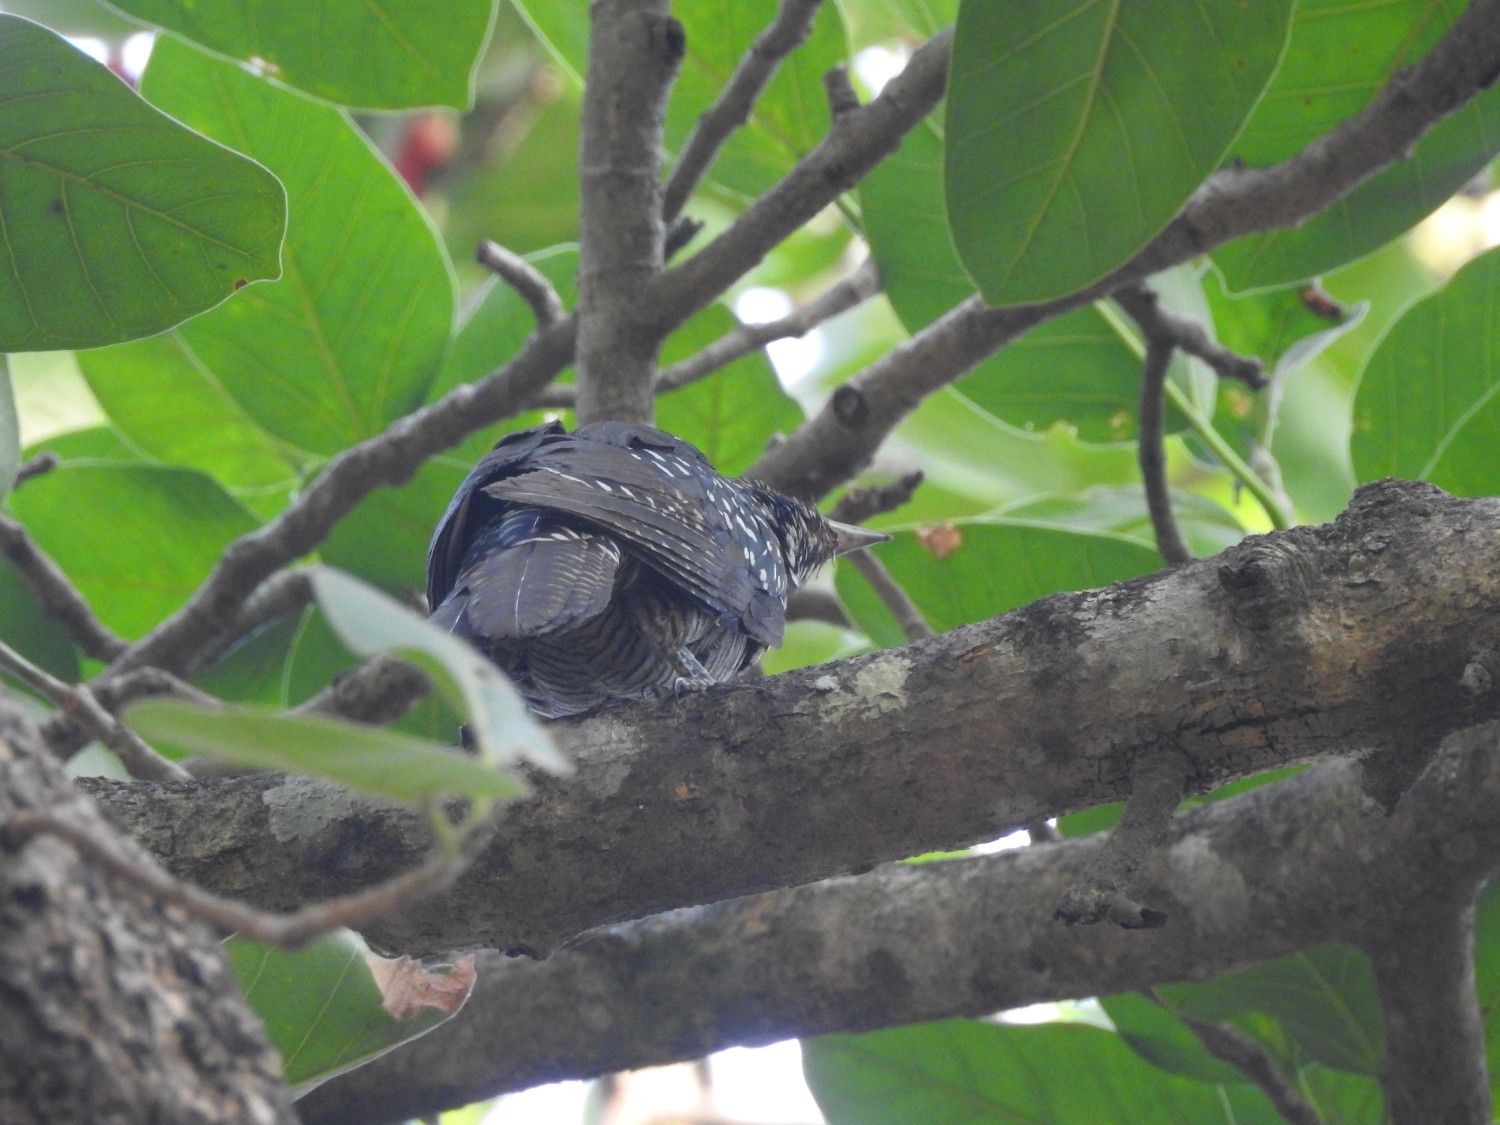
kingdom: Animalia
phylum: Chordata
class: Aves
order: Cuculiformes
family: Cuculidae
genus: Eudynamys
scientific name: Eudynamys scolopaceus
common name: Asian koel
